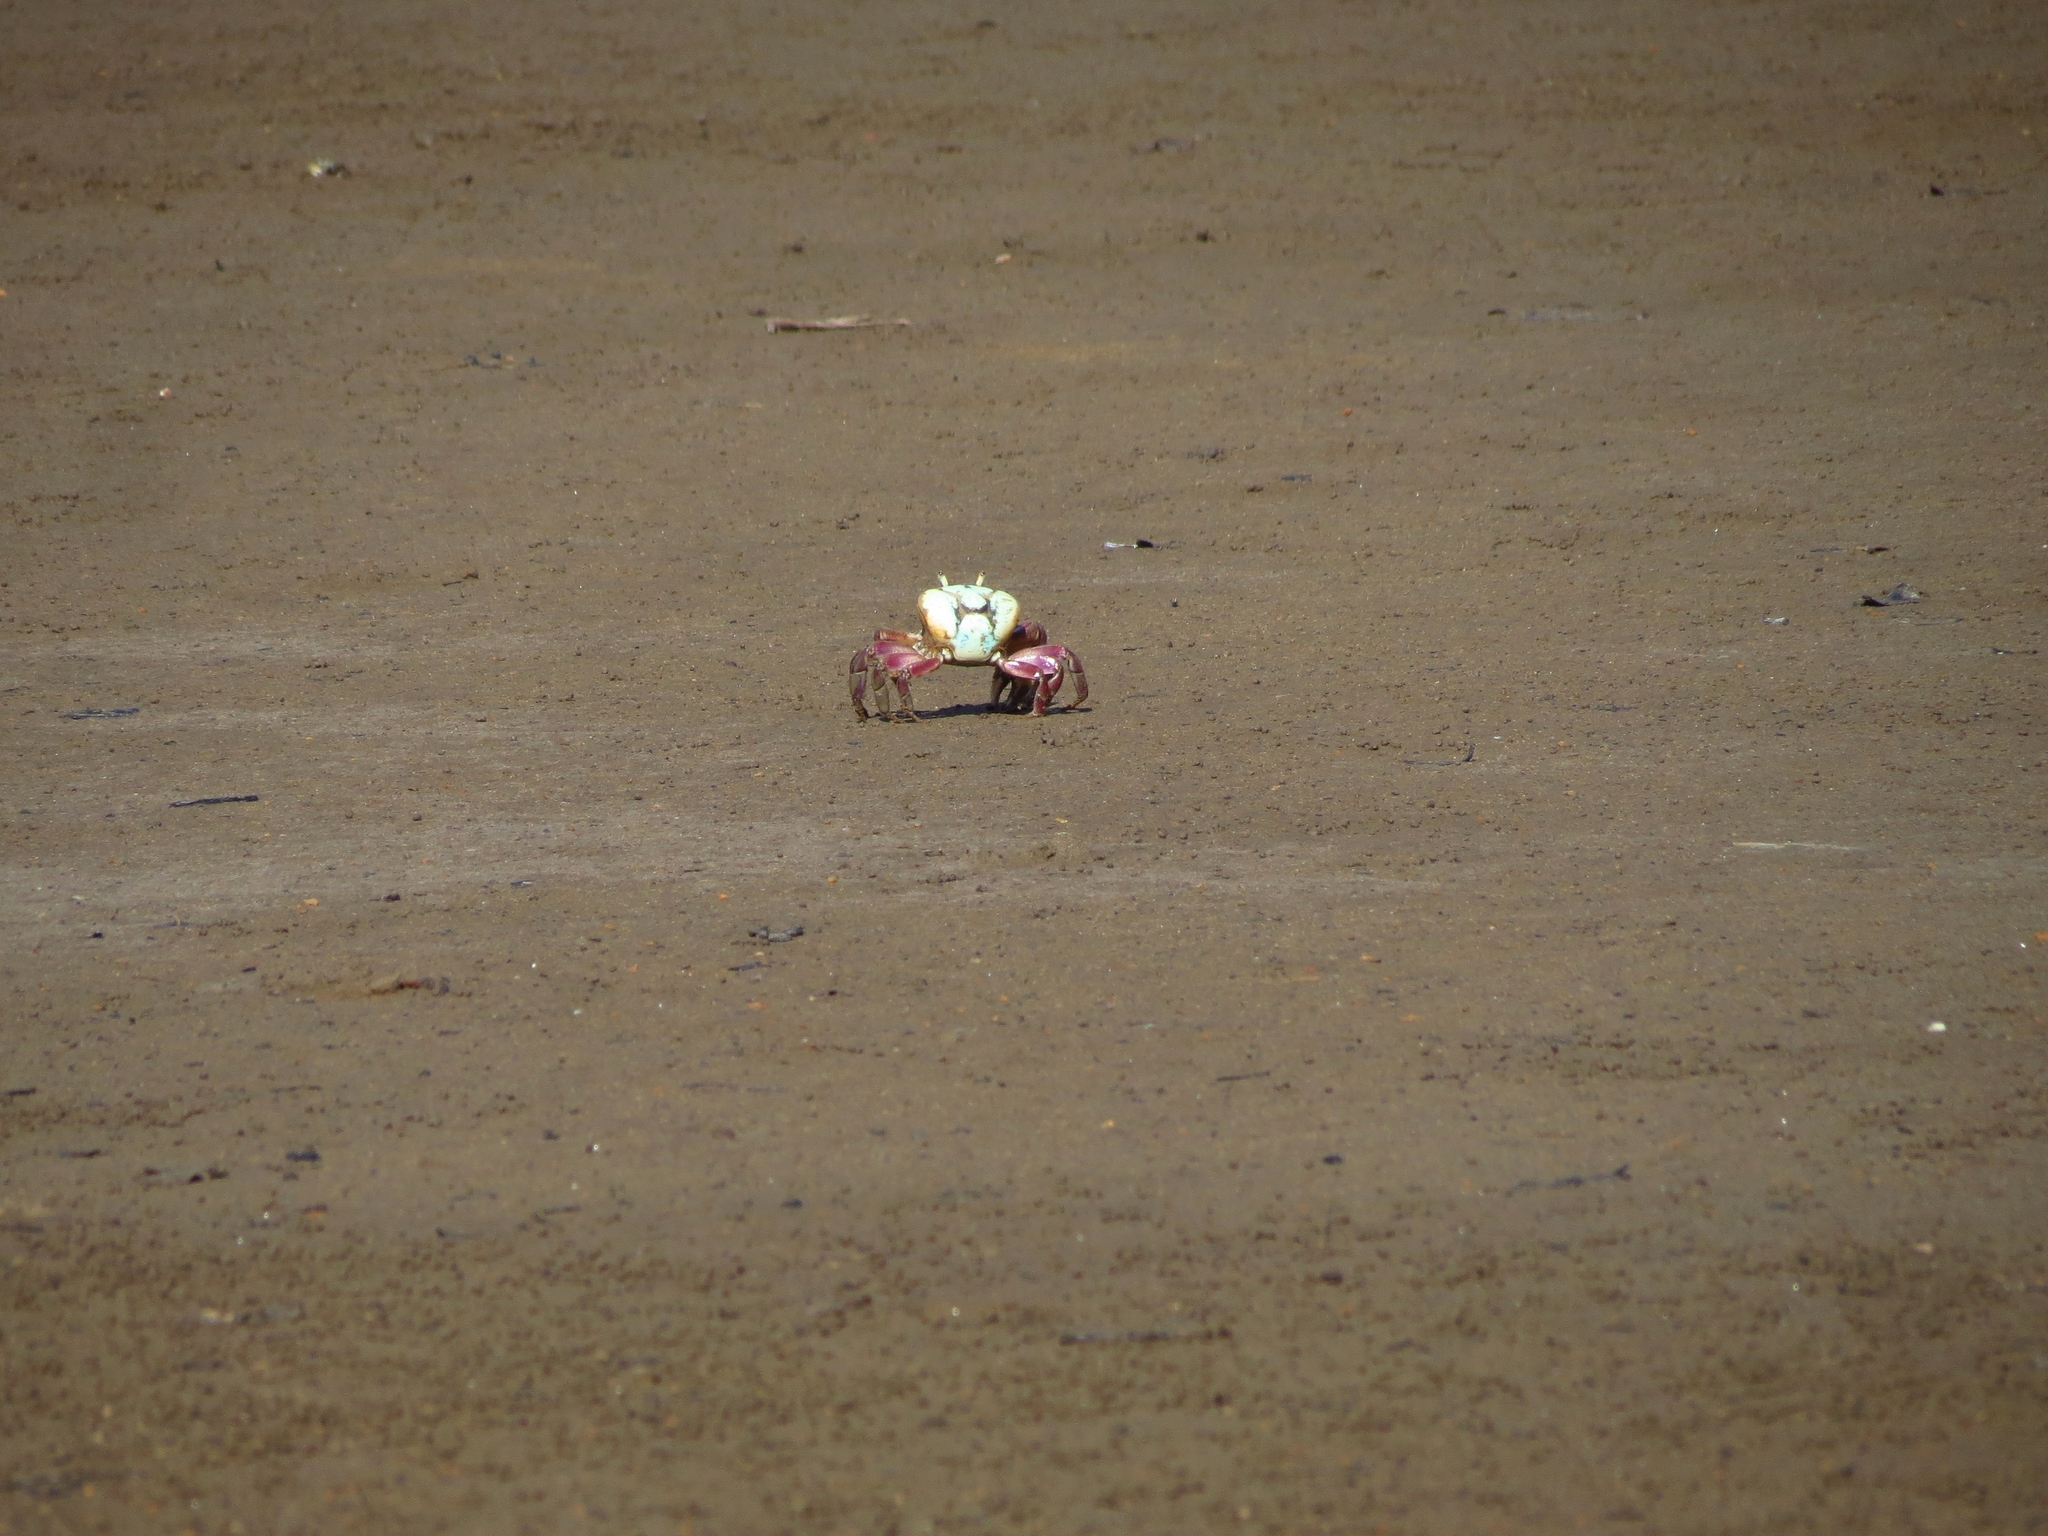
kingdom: Animalia
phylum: Arthropoda
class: Malacostraca
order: Decapoda
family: Ocypodidae
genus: Ucides
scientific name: Ucides cordatus
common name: Swamp ghost crab
